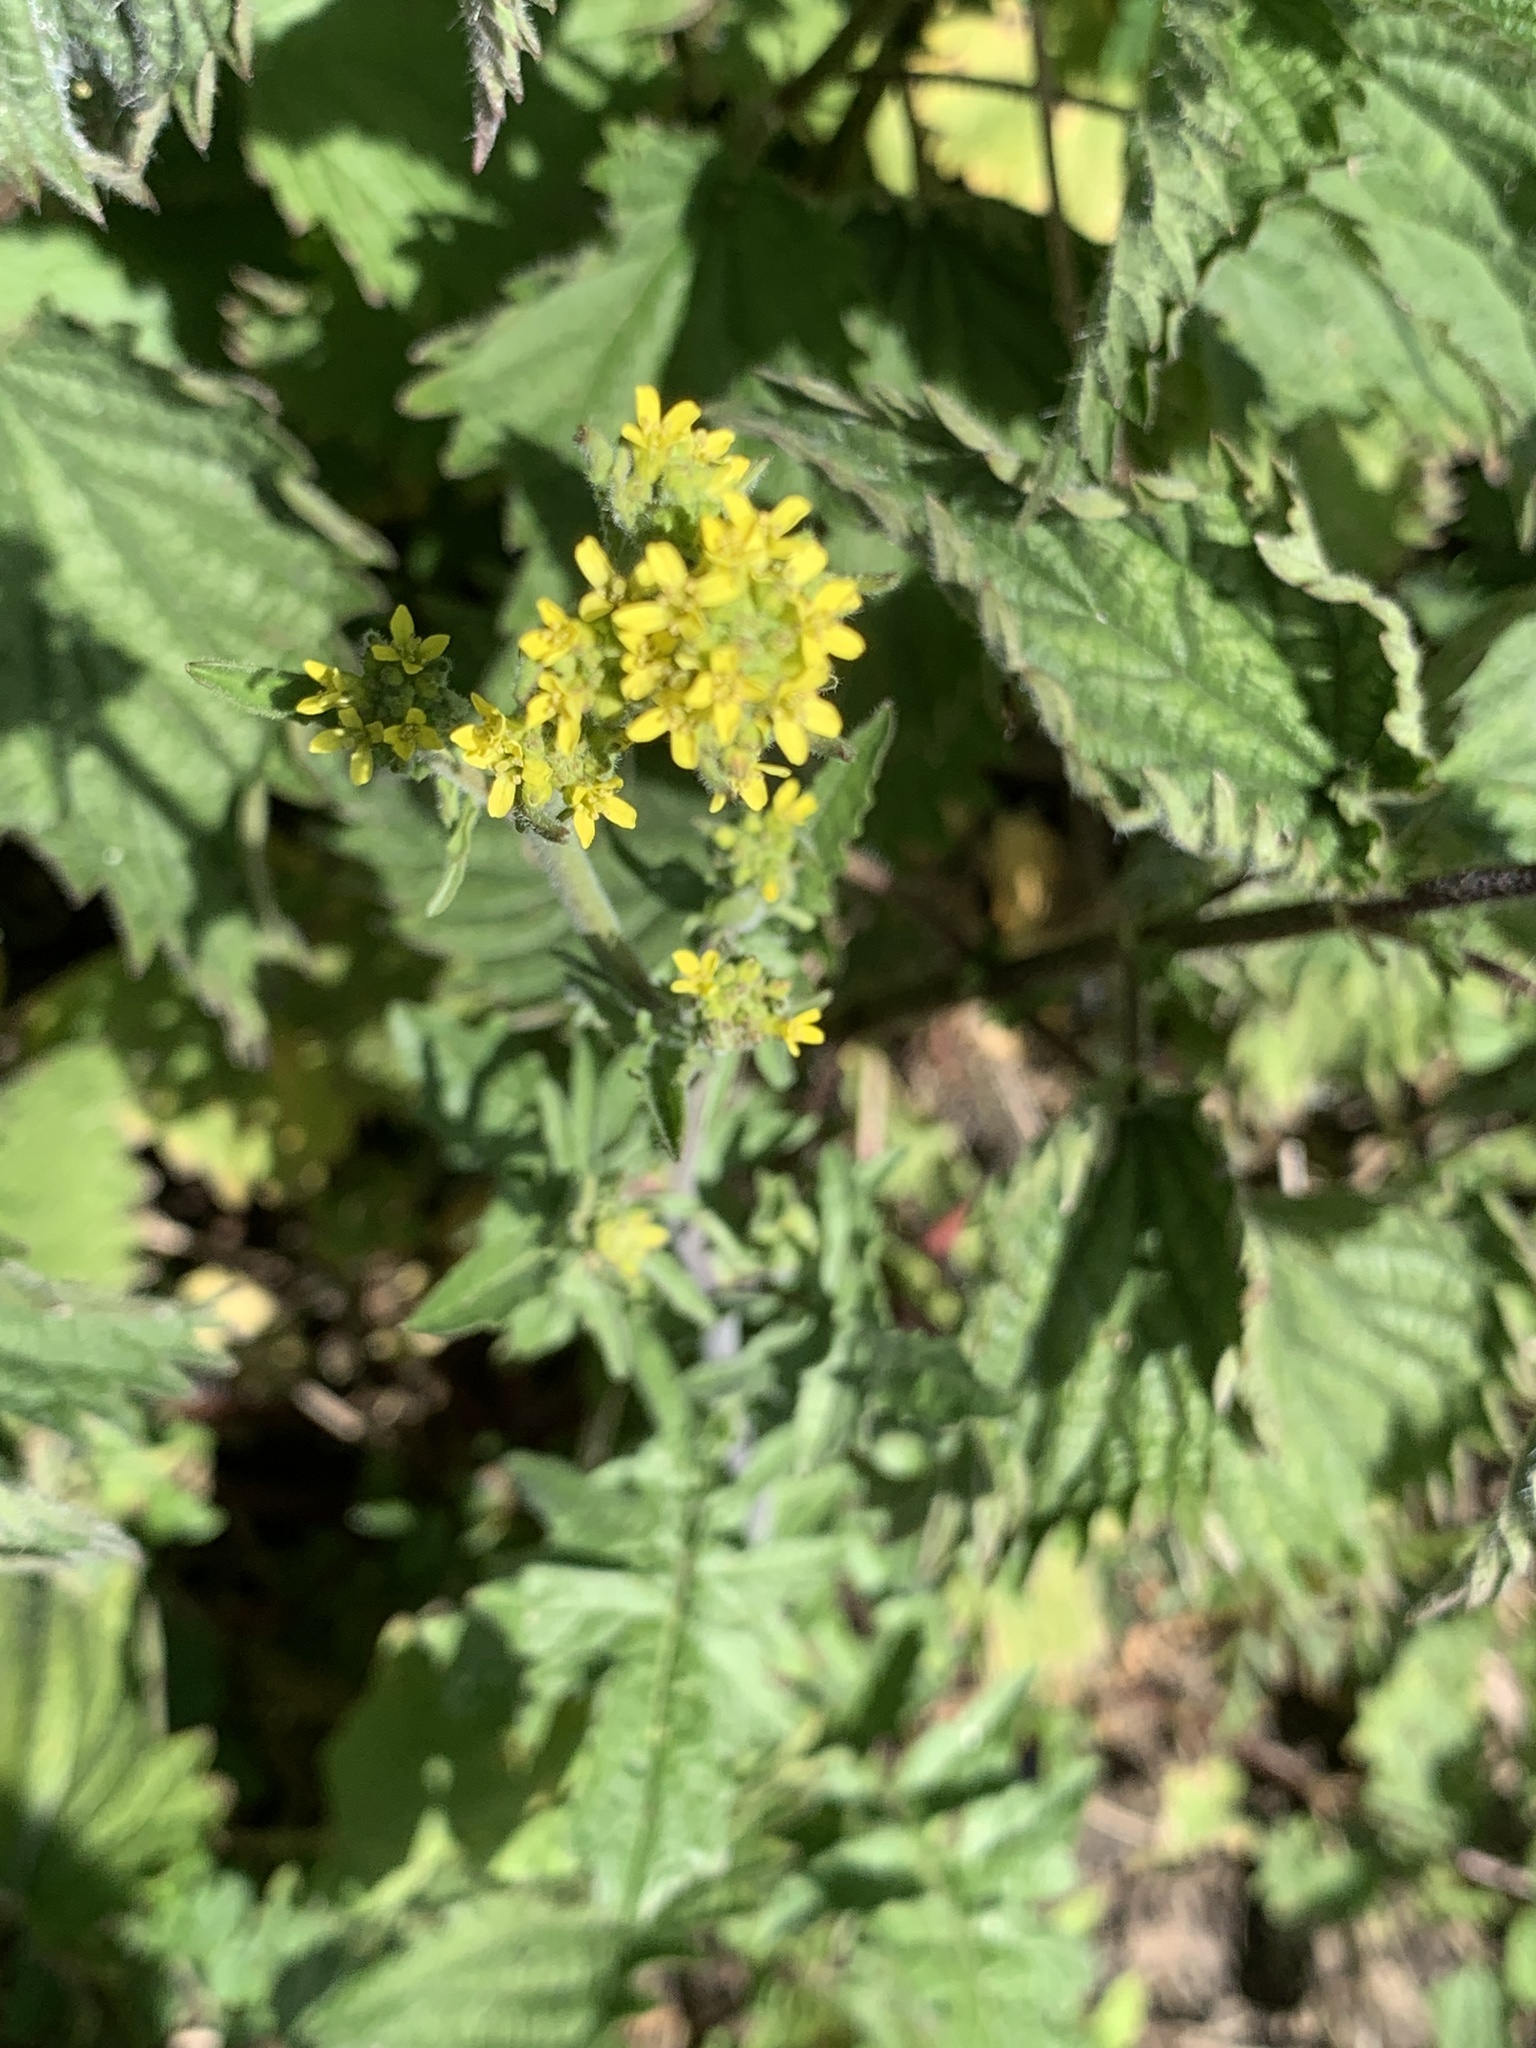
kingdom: Plantae
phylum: Tracheophyta
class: Magnoliopsida
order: Brassicales
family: Brassicaceae
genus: Sisymbrium
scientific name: Sisymbrium officinale
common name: Hedge mustard
